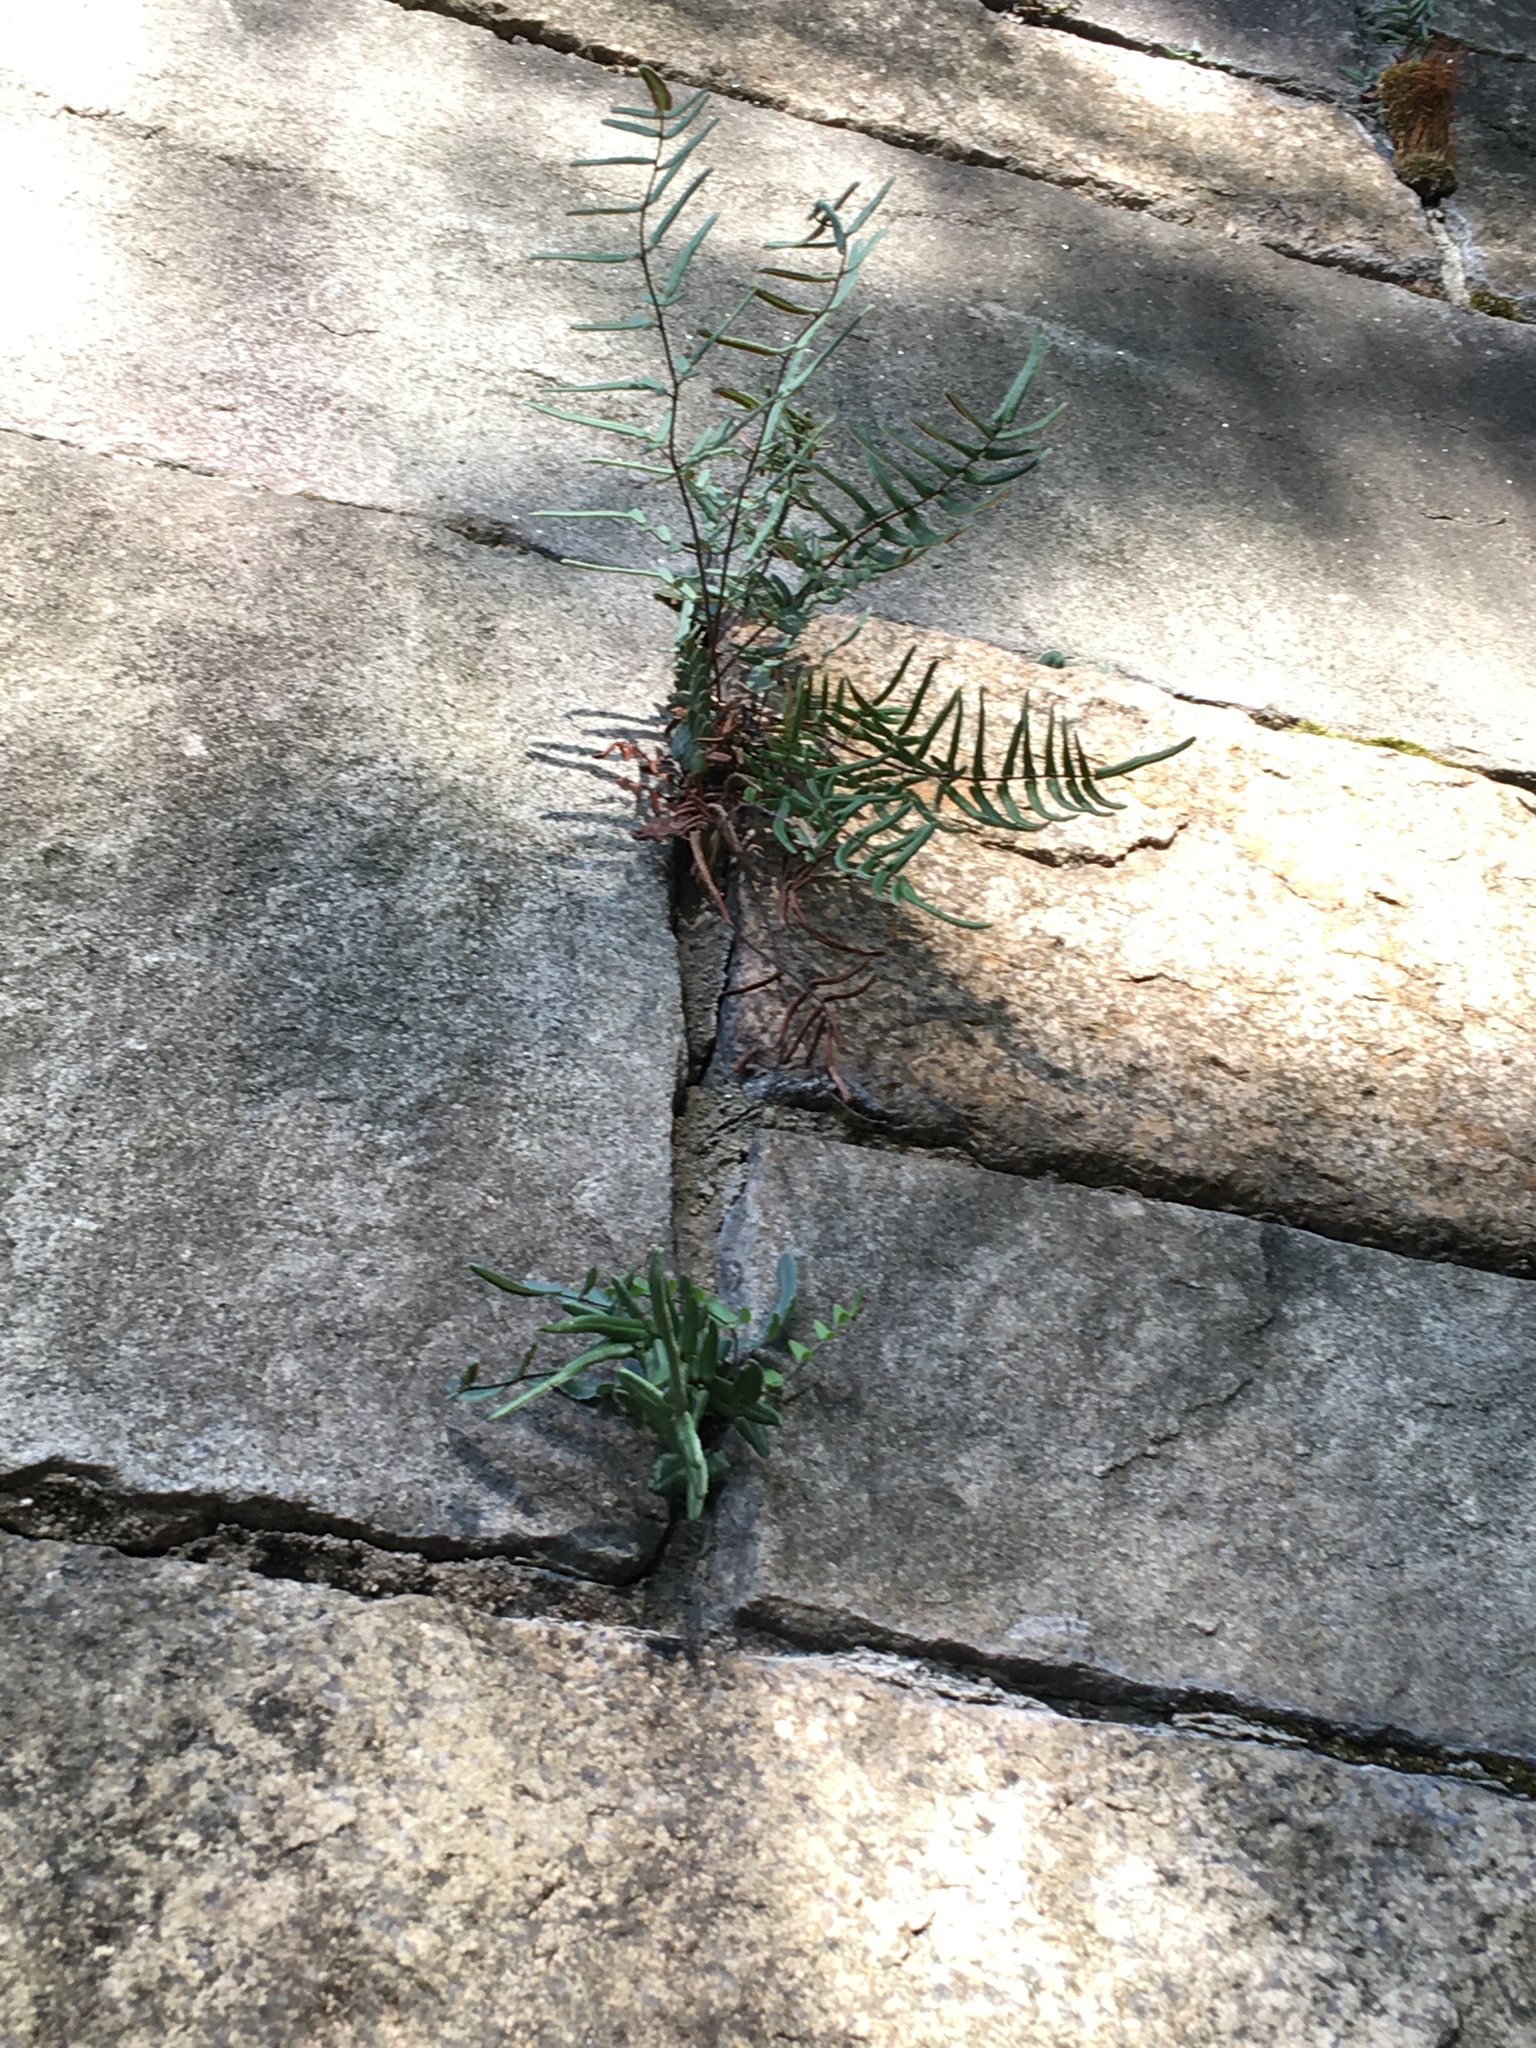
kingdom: Plantae
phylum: Tracheophyta
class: Polypodiopsida
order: Polypodiales
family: Pteridaceae
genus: Pellaea
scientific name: Pellaea atropurpurea
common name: Hairy cliffbrake
